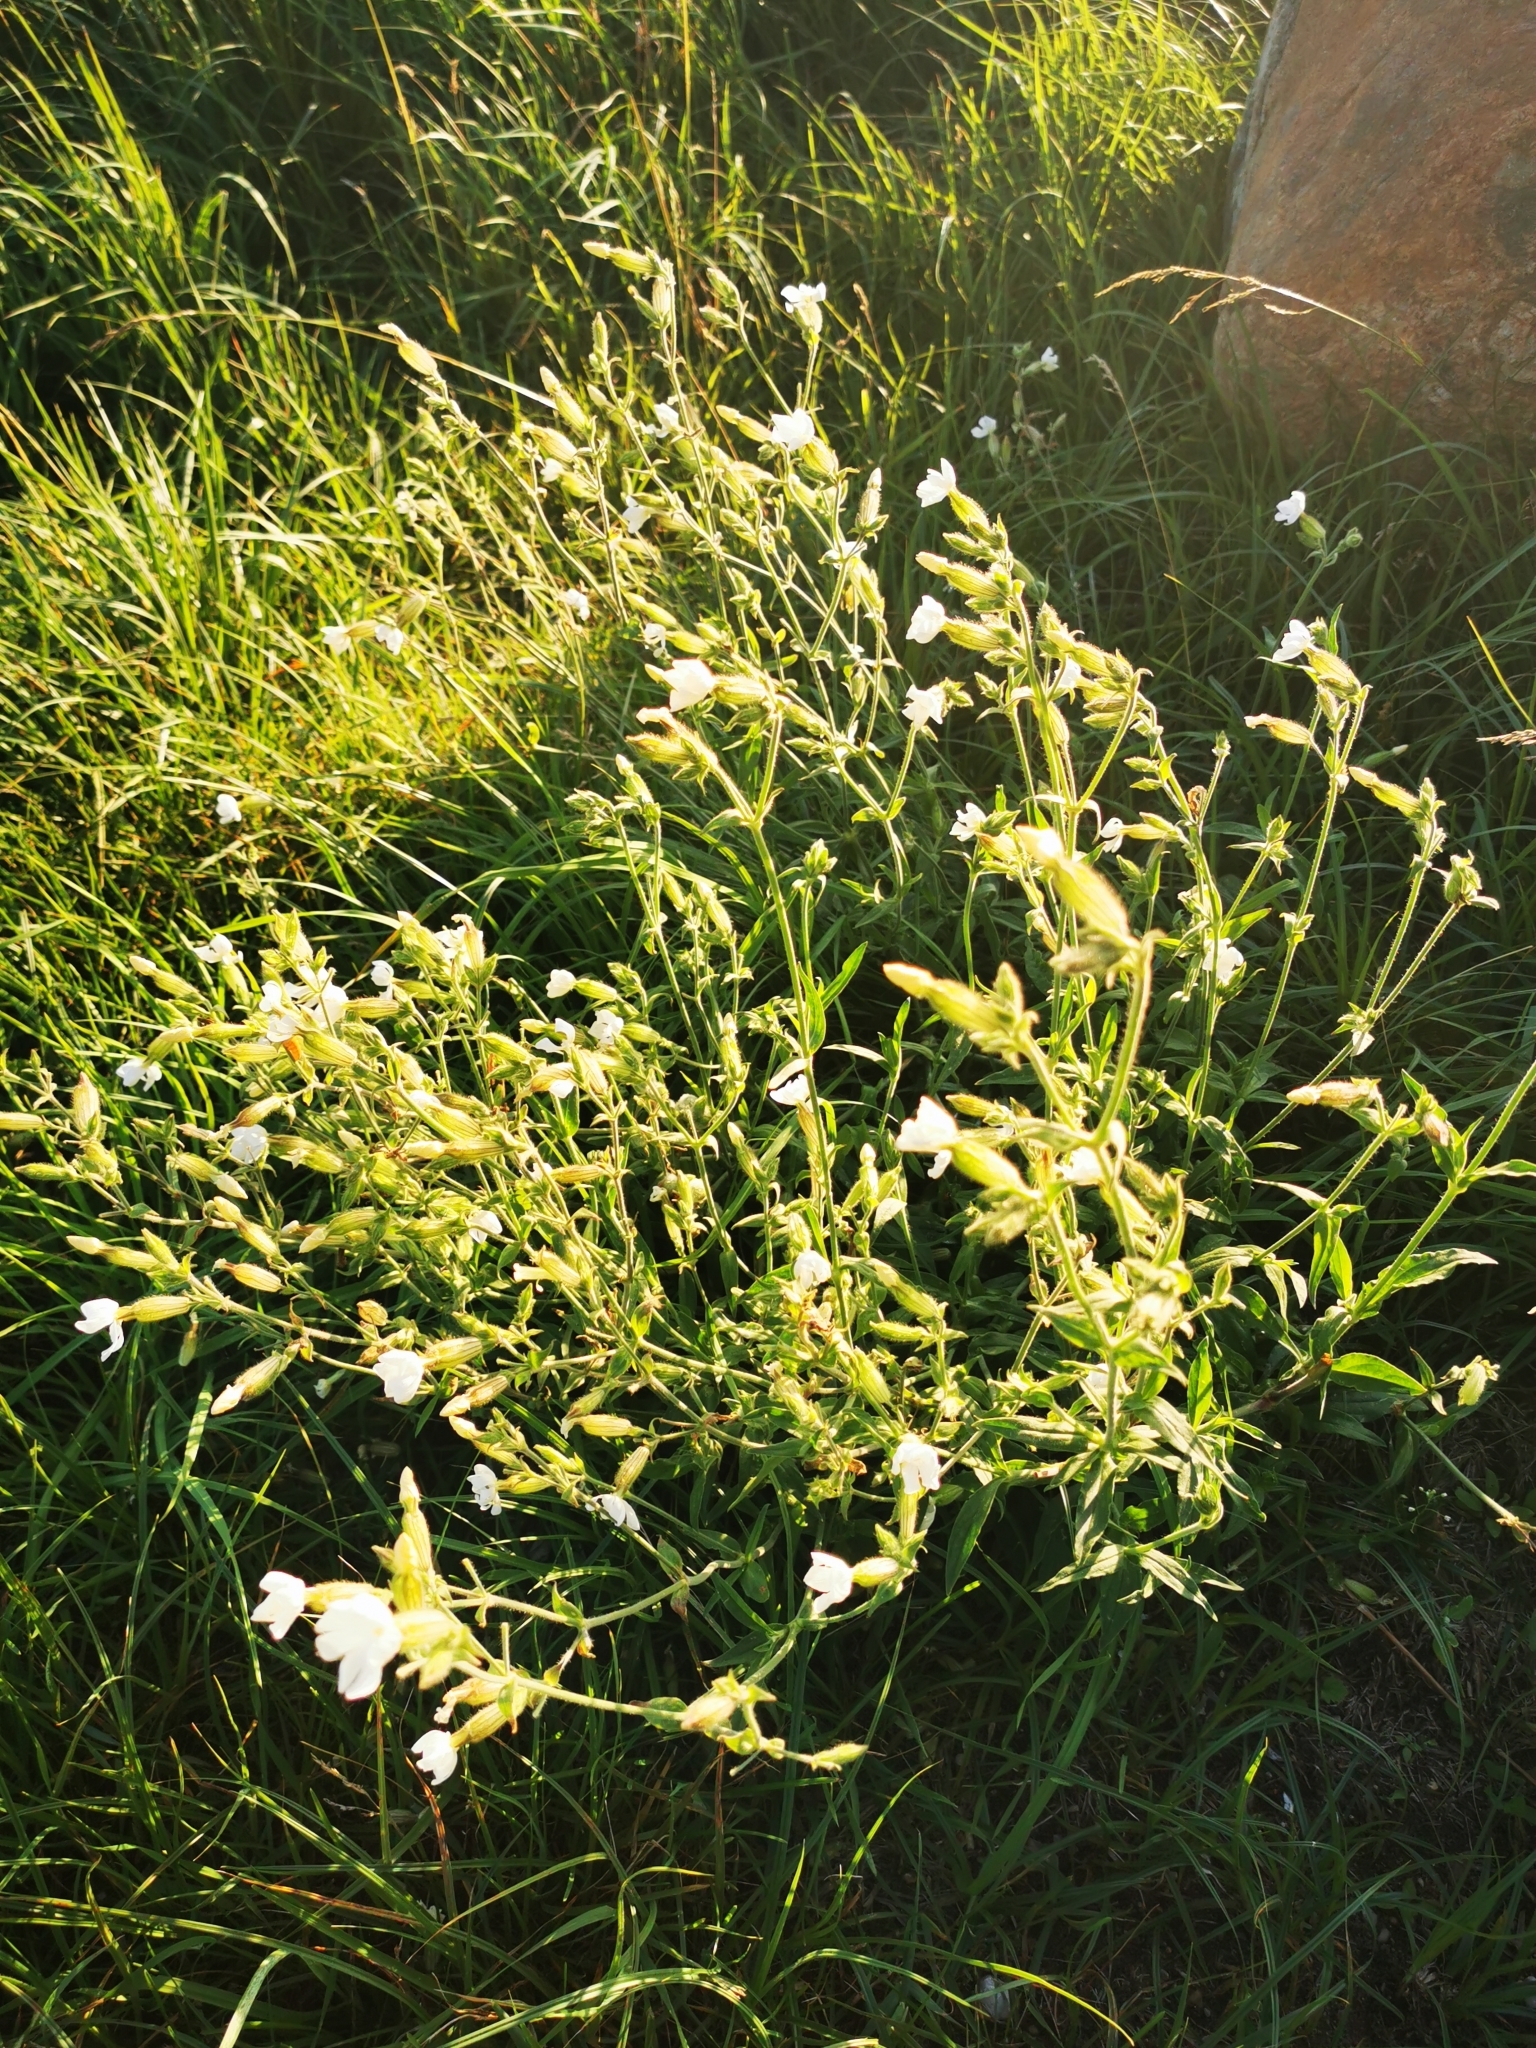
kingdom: Plantae
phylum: Tracheophyta
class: Magnoliopsida
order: Caryophyllales
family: Caryophyllaceae
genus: Silene
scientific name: Silene latifolia
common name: White campion
